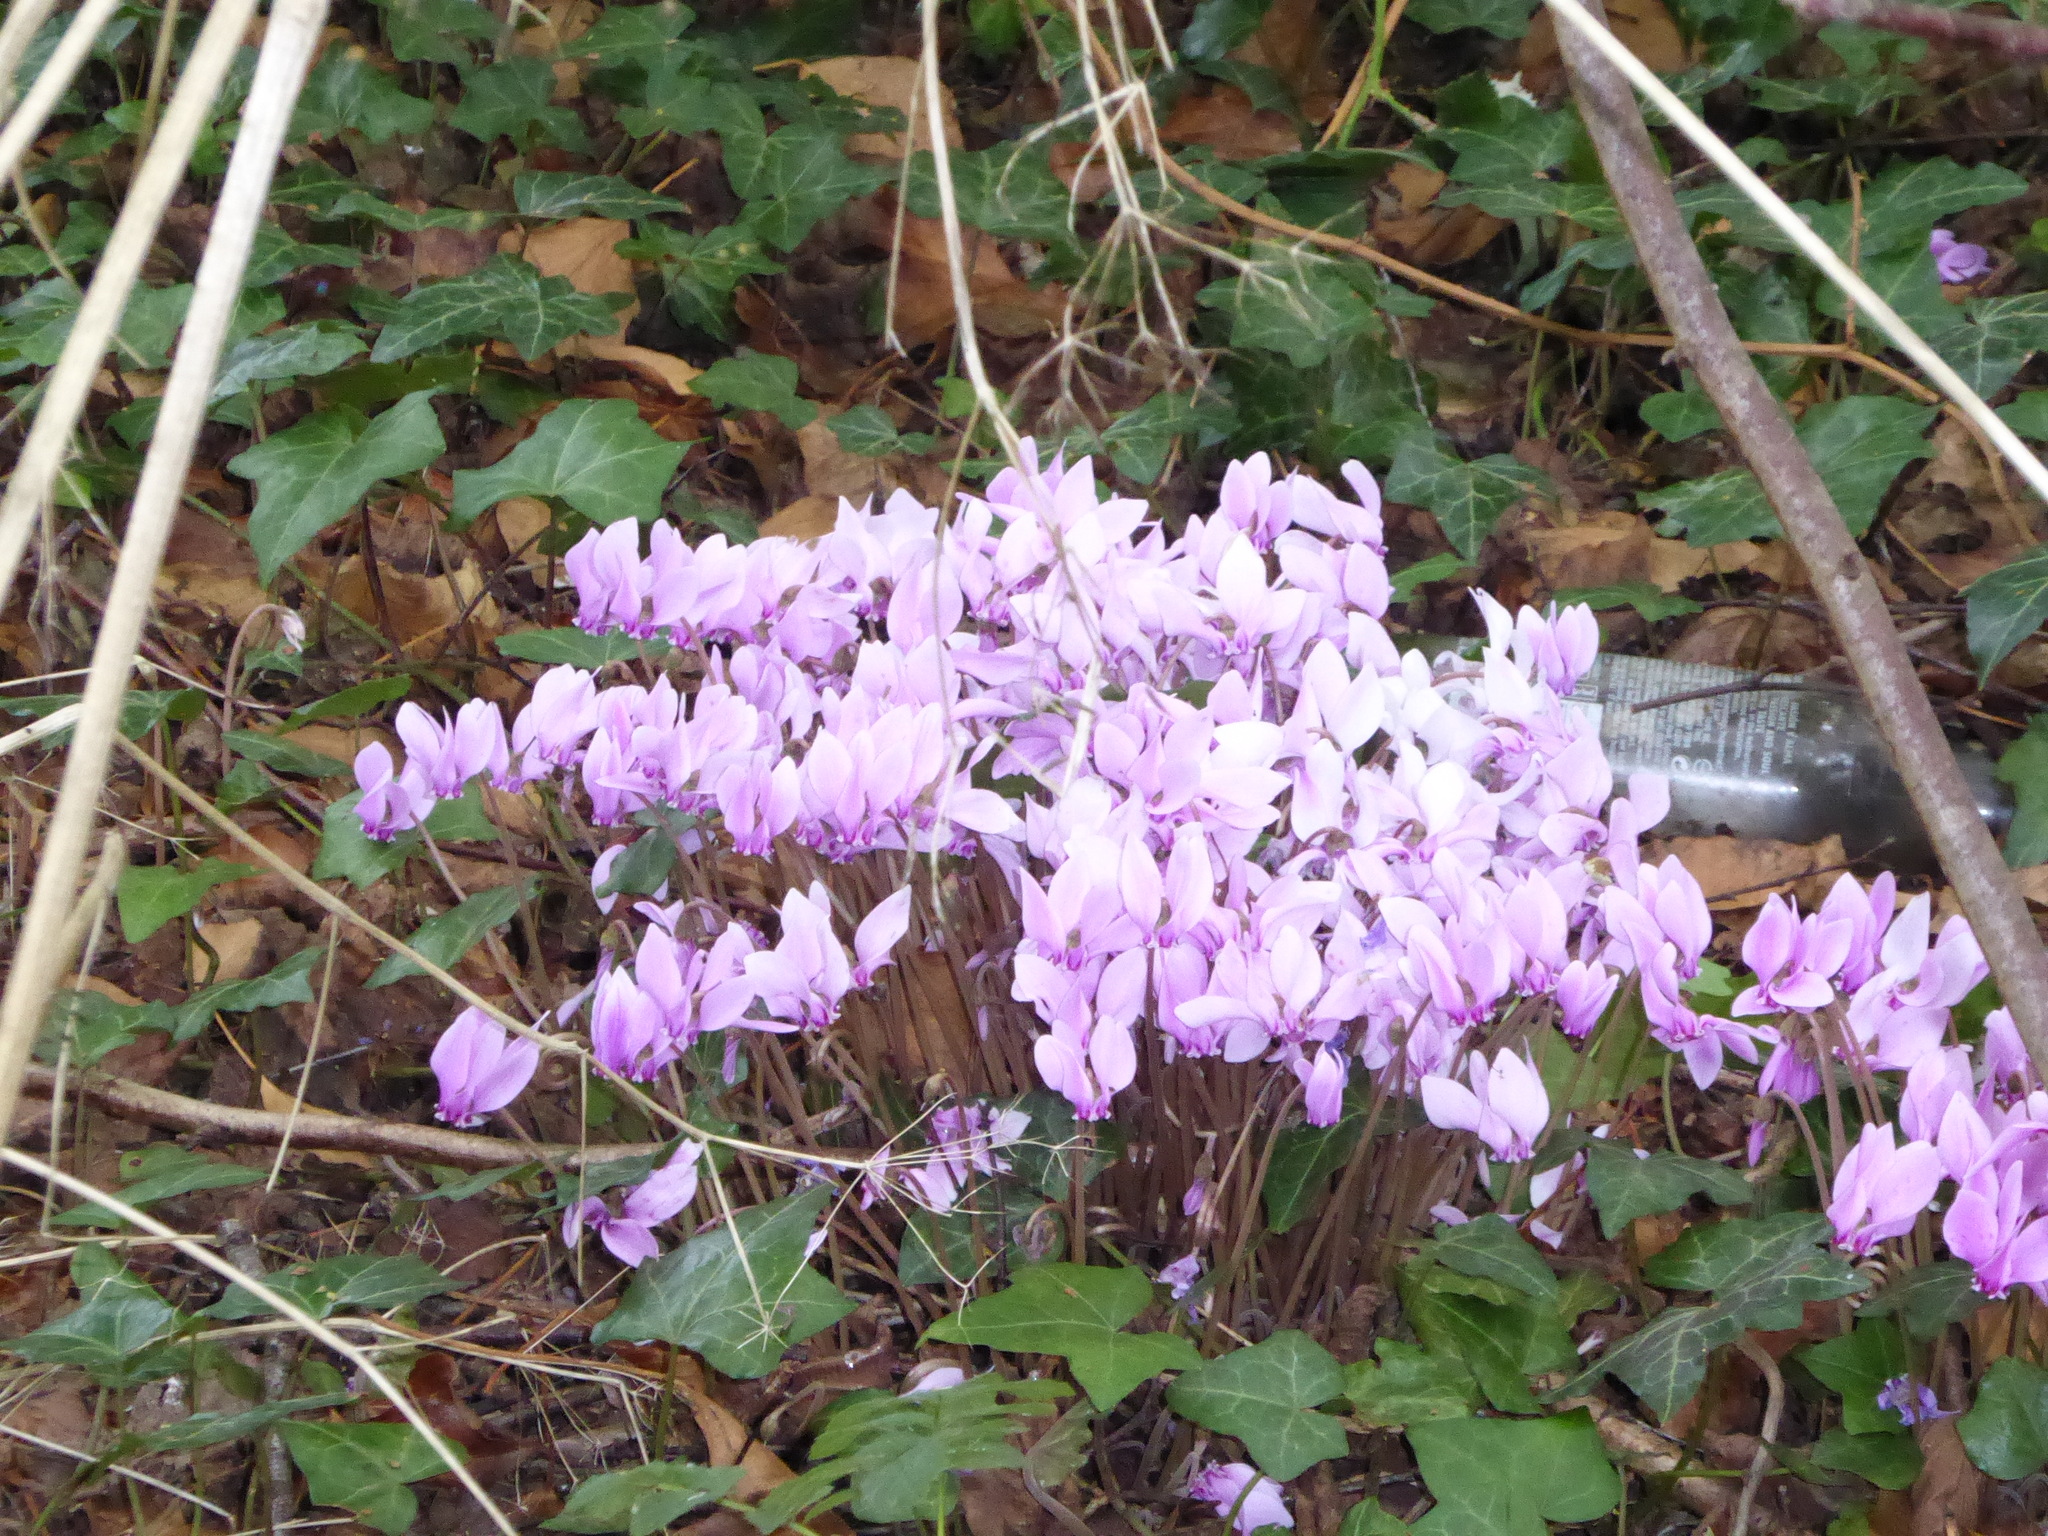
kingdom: Plantae
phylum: Tracheophyta
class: Magnoliopsida
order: Ericales
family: Primulaceae
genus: Cyclamen
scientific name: Cyclamen hederifolium
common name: Sowbread
